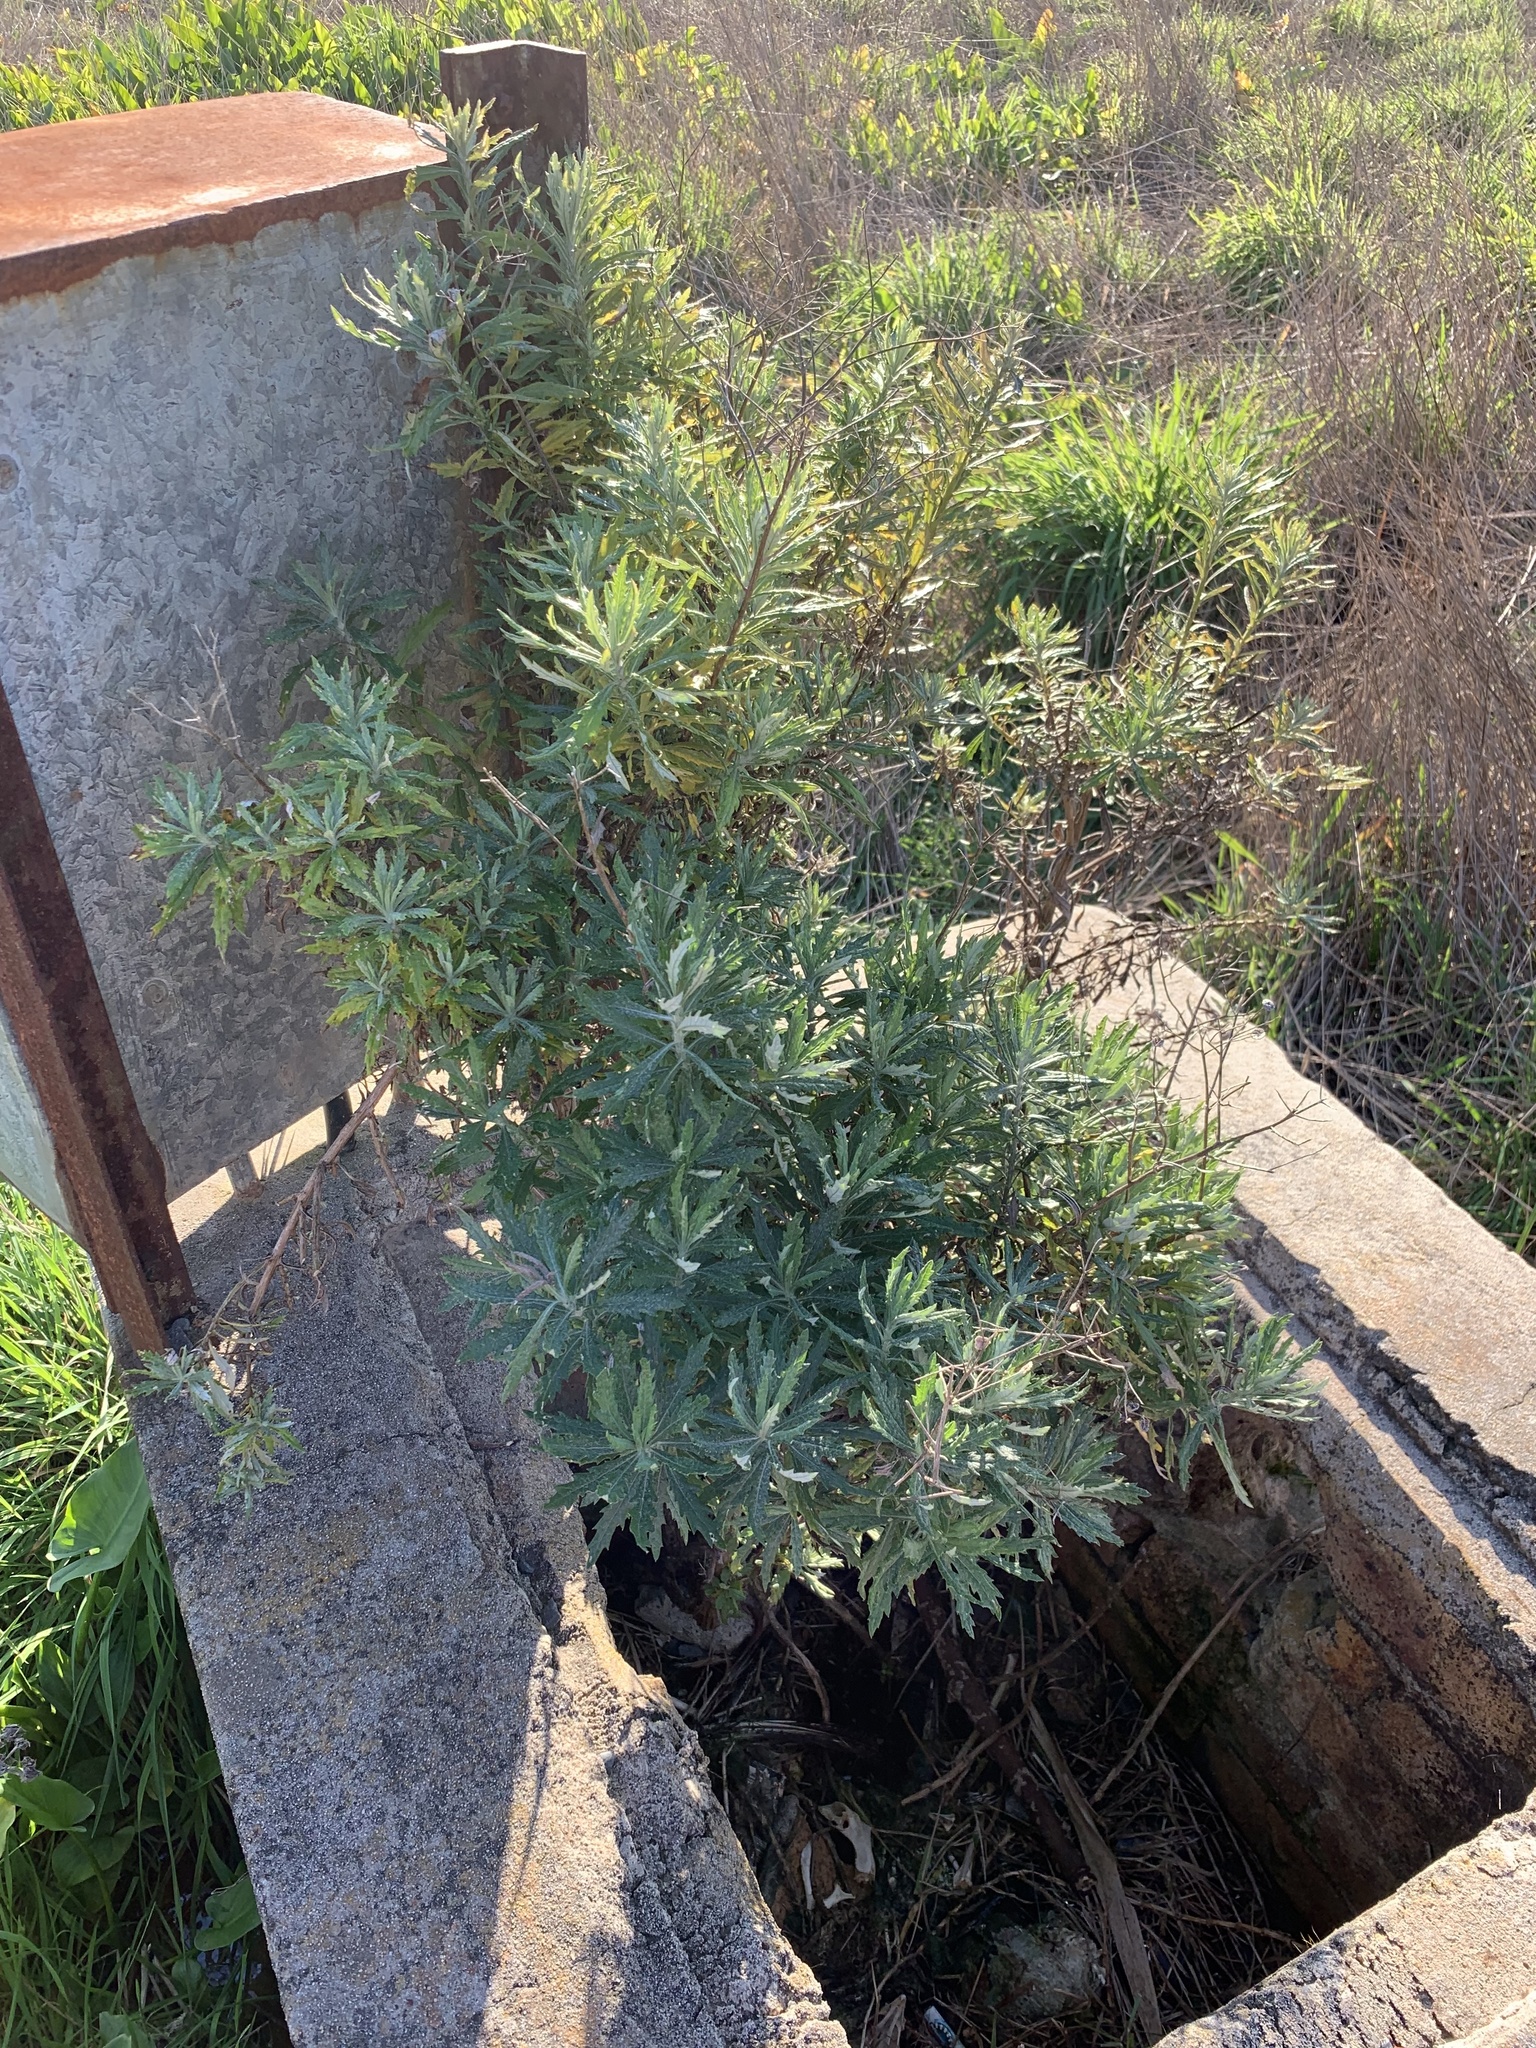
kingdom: Plantae
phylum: Tracheophyta
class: Magnoliopsida
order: Asterales
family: Asteraceae
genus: Senecio
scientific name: Senecio pterophorus
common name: Shoddy ragwort
